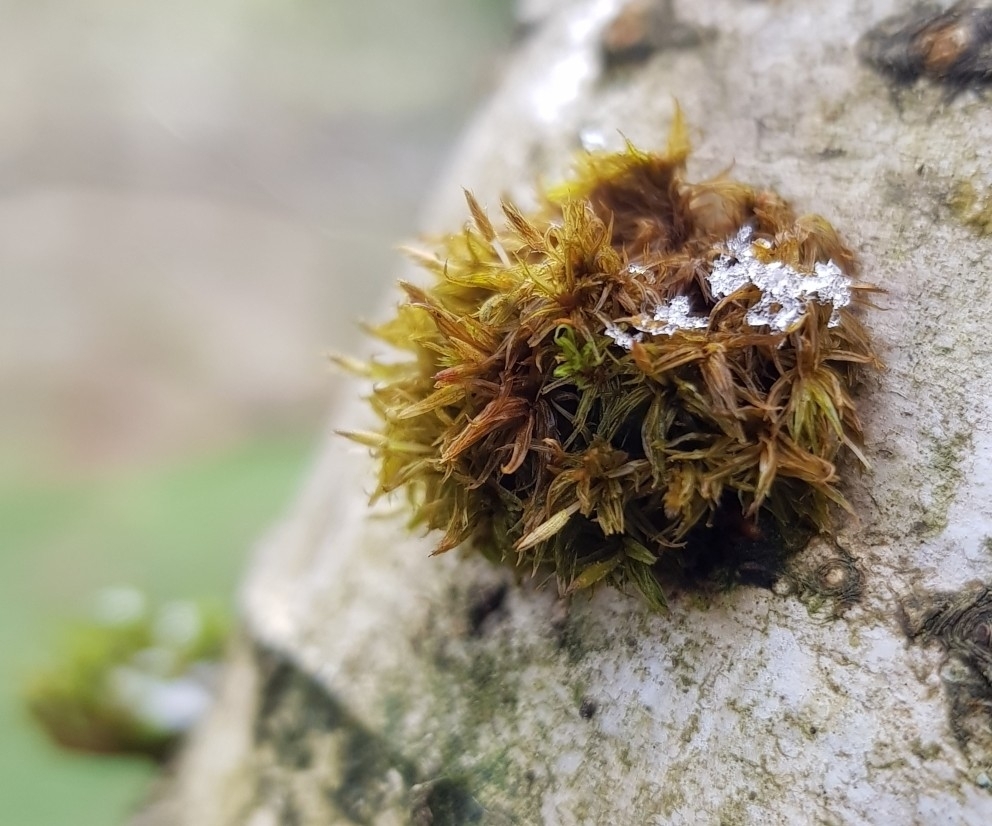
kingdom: Plantae
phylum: Bryophyta
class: Bryopsida
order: Orthotrichales
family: Orthotrichaceae
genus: Ulota
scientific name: Ulota crispa
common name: Crisped pincushion moss
